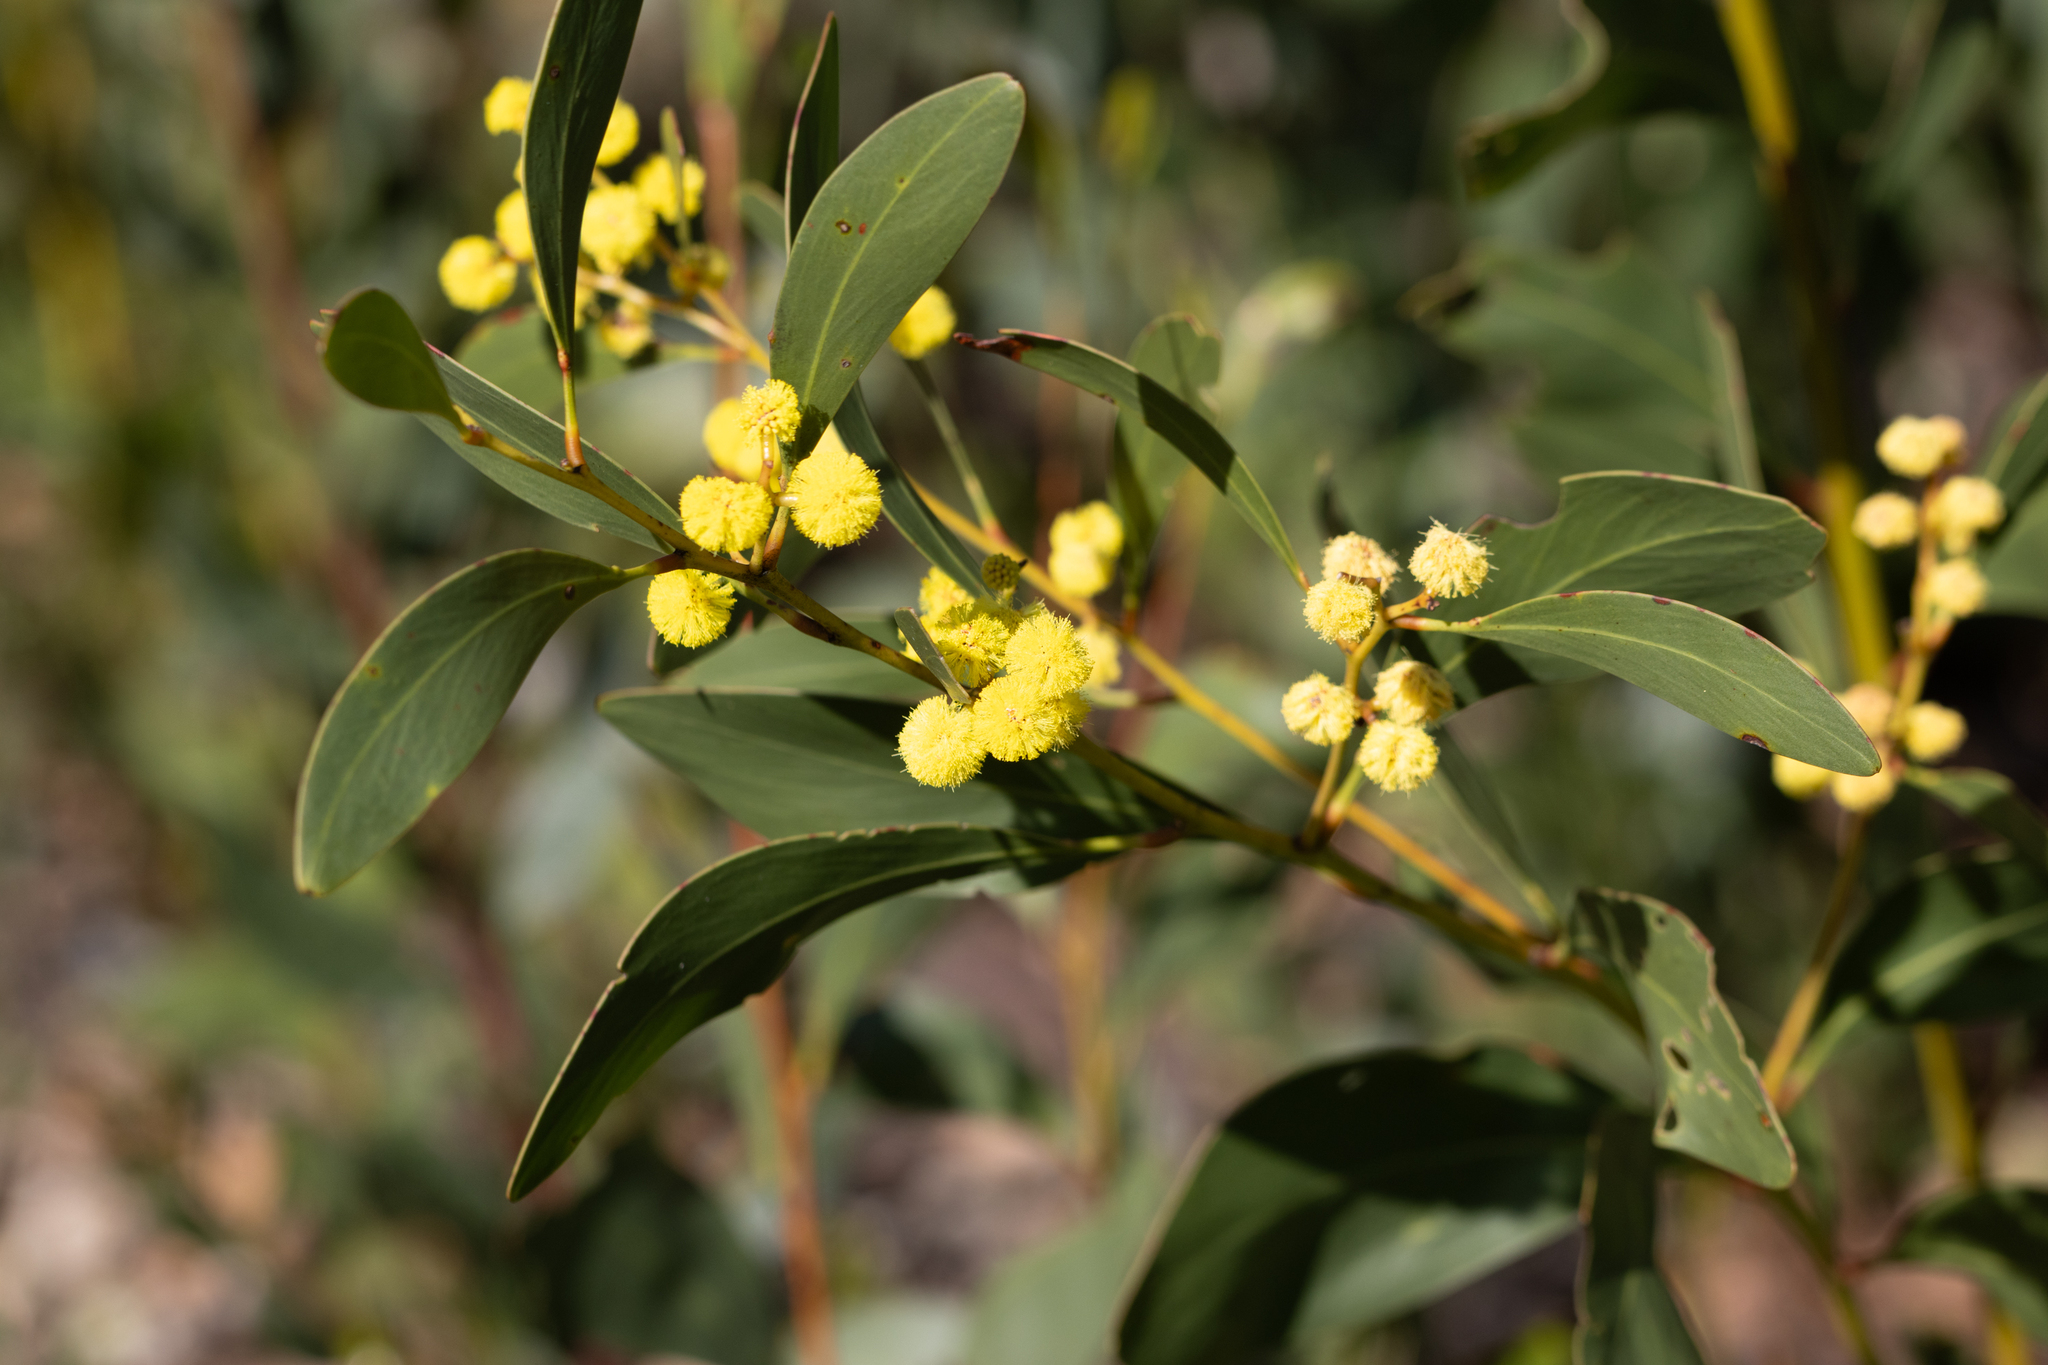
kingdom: Plantae
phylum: Tracheophyta
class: Magnoliopsida
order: Fabales
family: Fabaceae
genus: Acacia
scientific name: Acacia pycnantha
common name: Golden wattle
